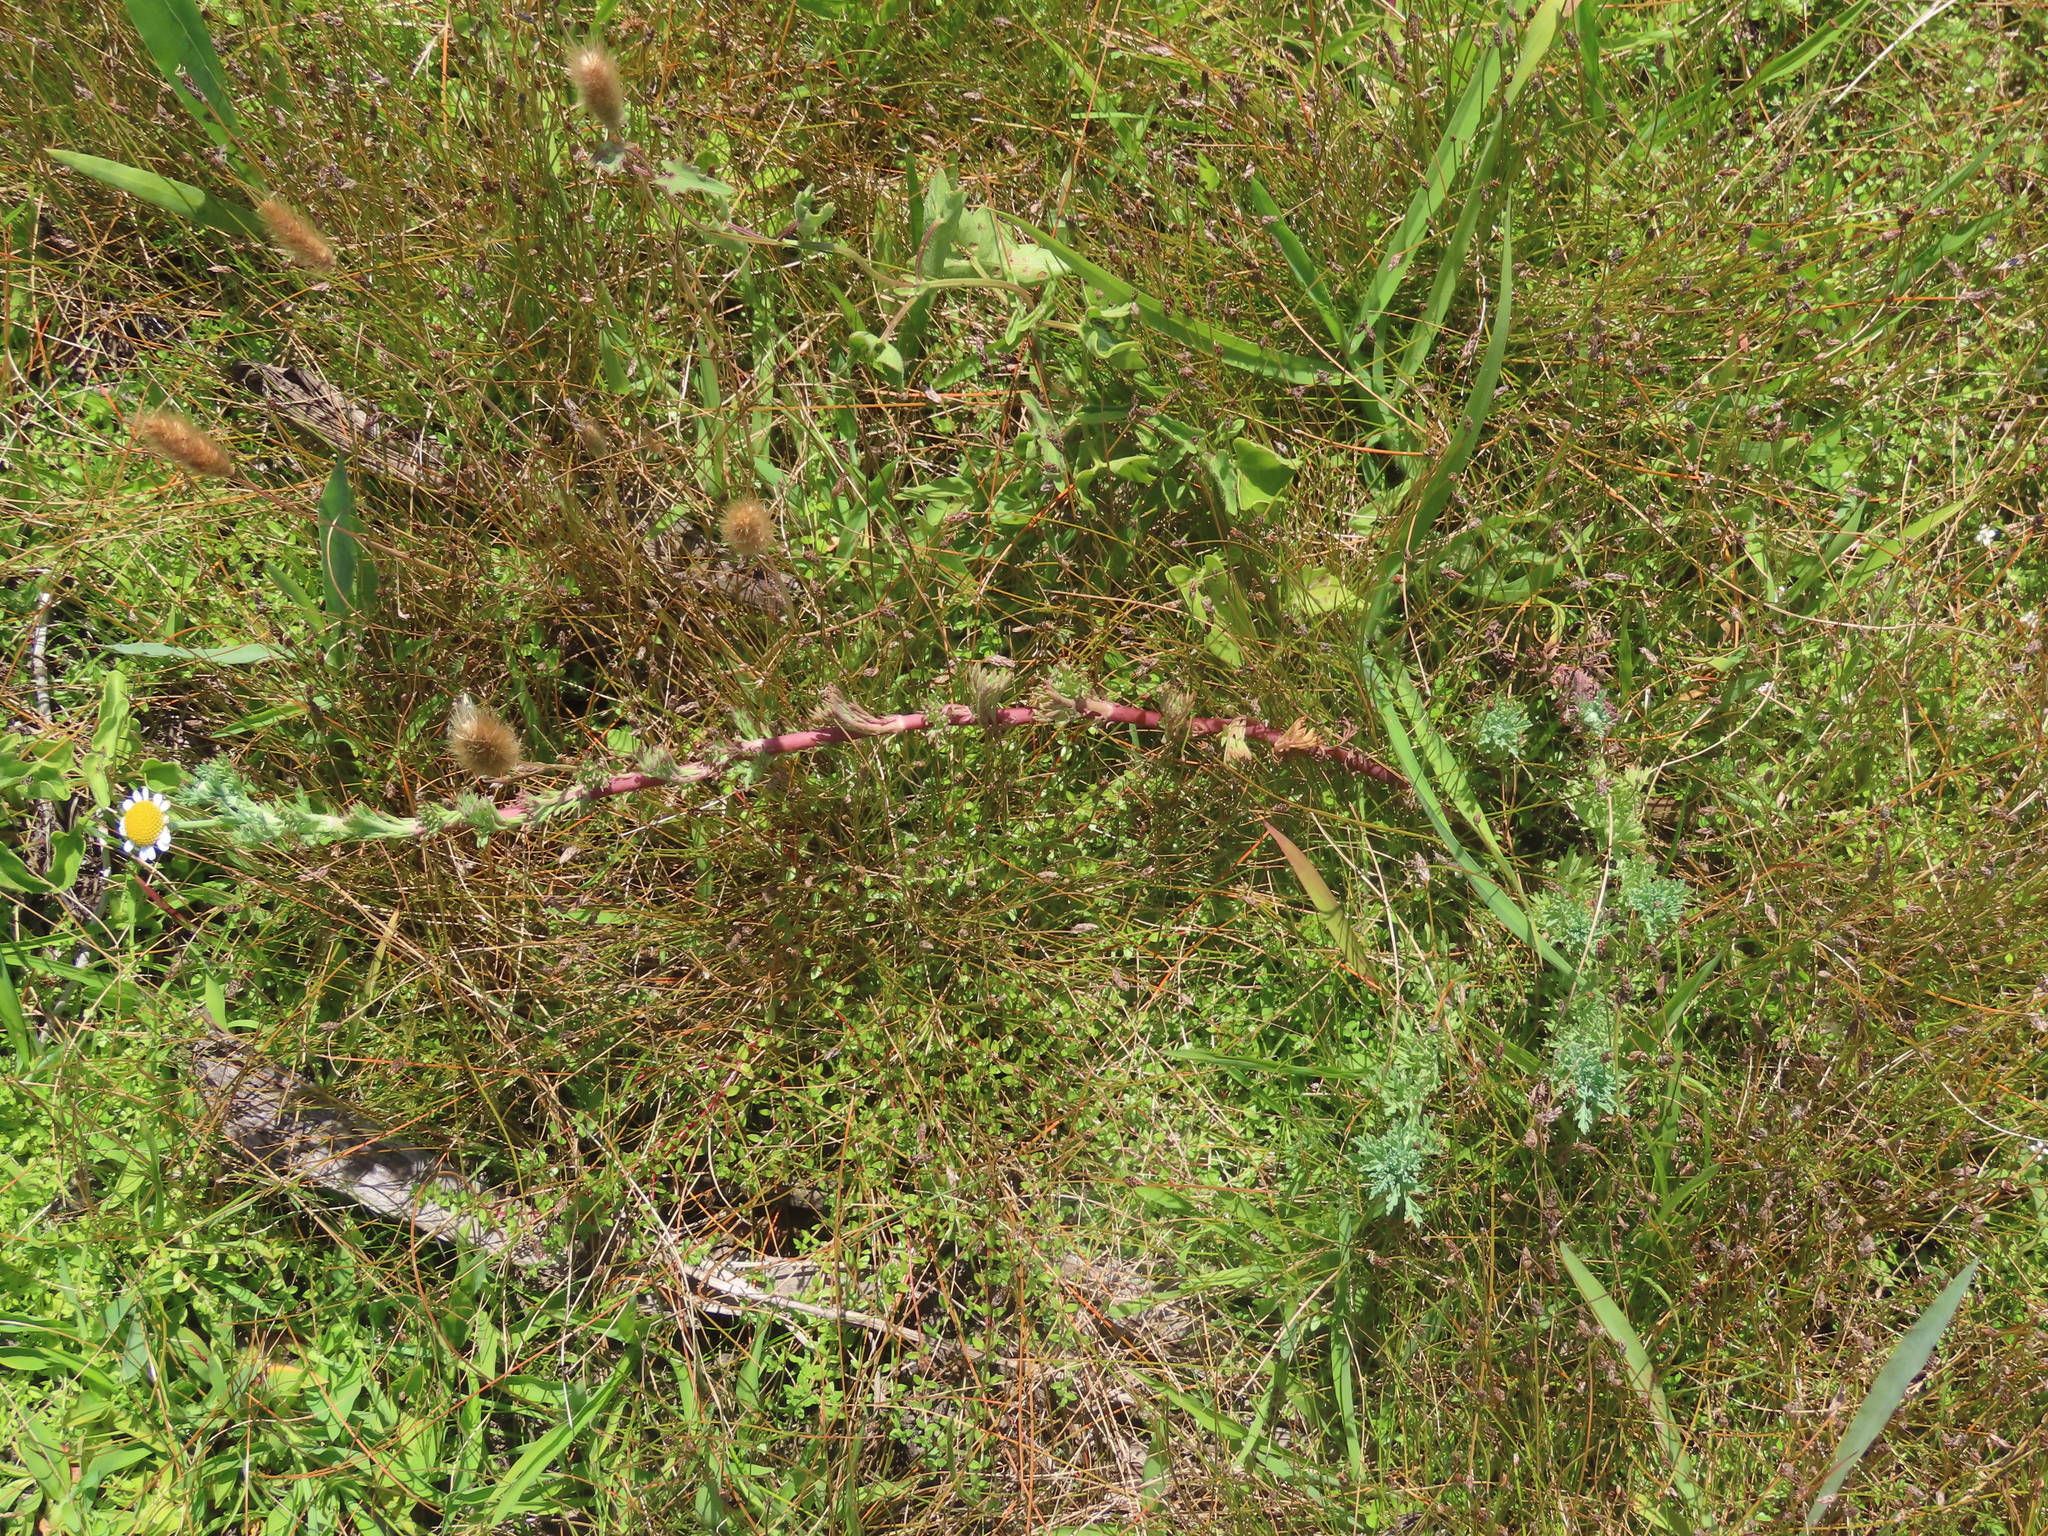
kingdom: Plantae
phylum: Tracheophyta
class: Magnoliopsida
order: Asterales
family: Asteraceae
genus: Cotula
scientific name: Cotula nigellifolia
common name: Staggerweed
